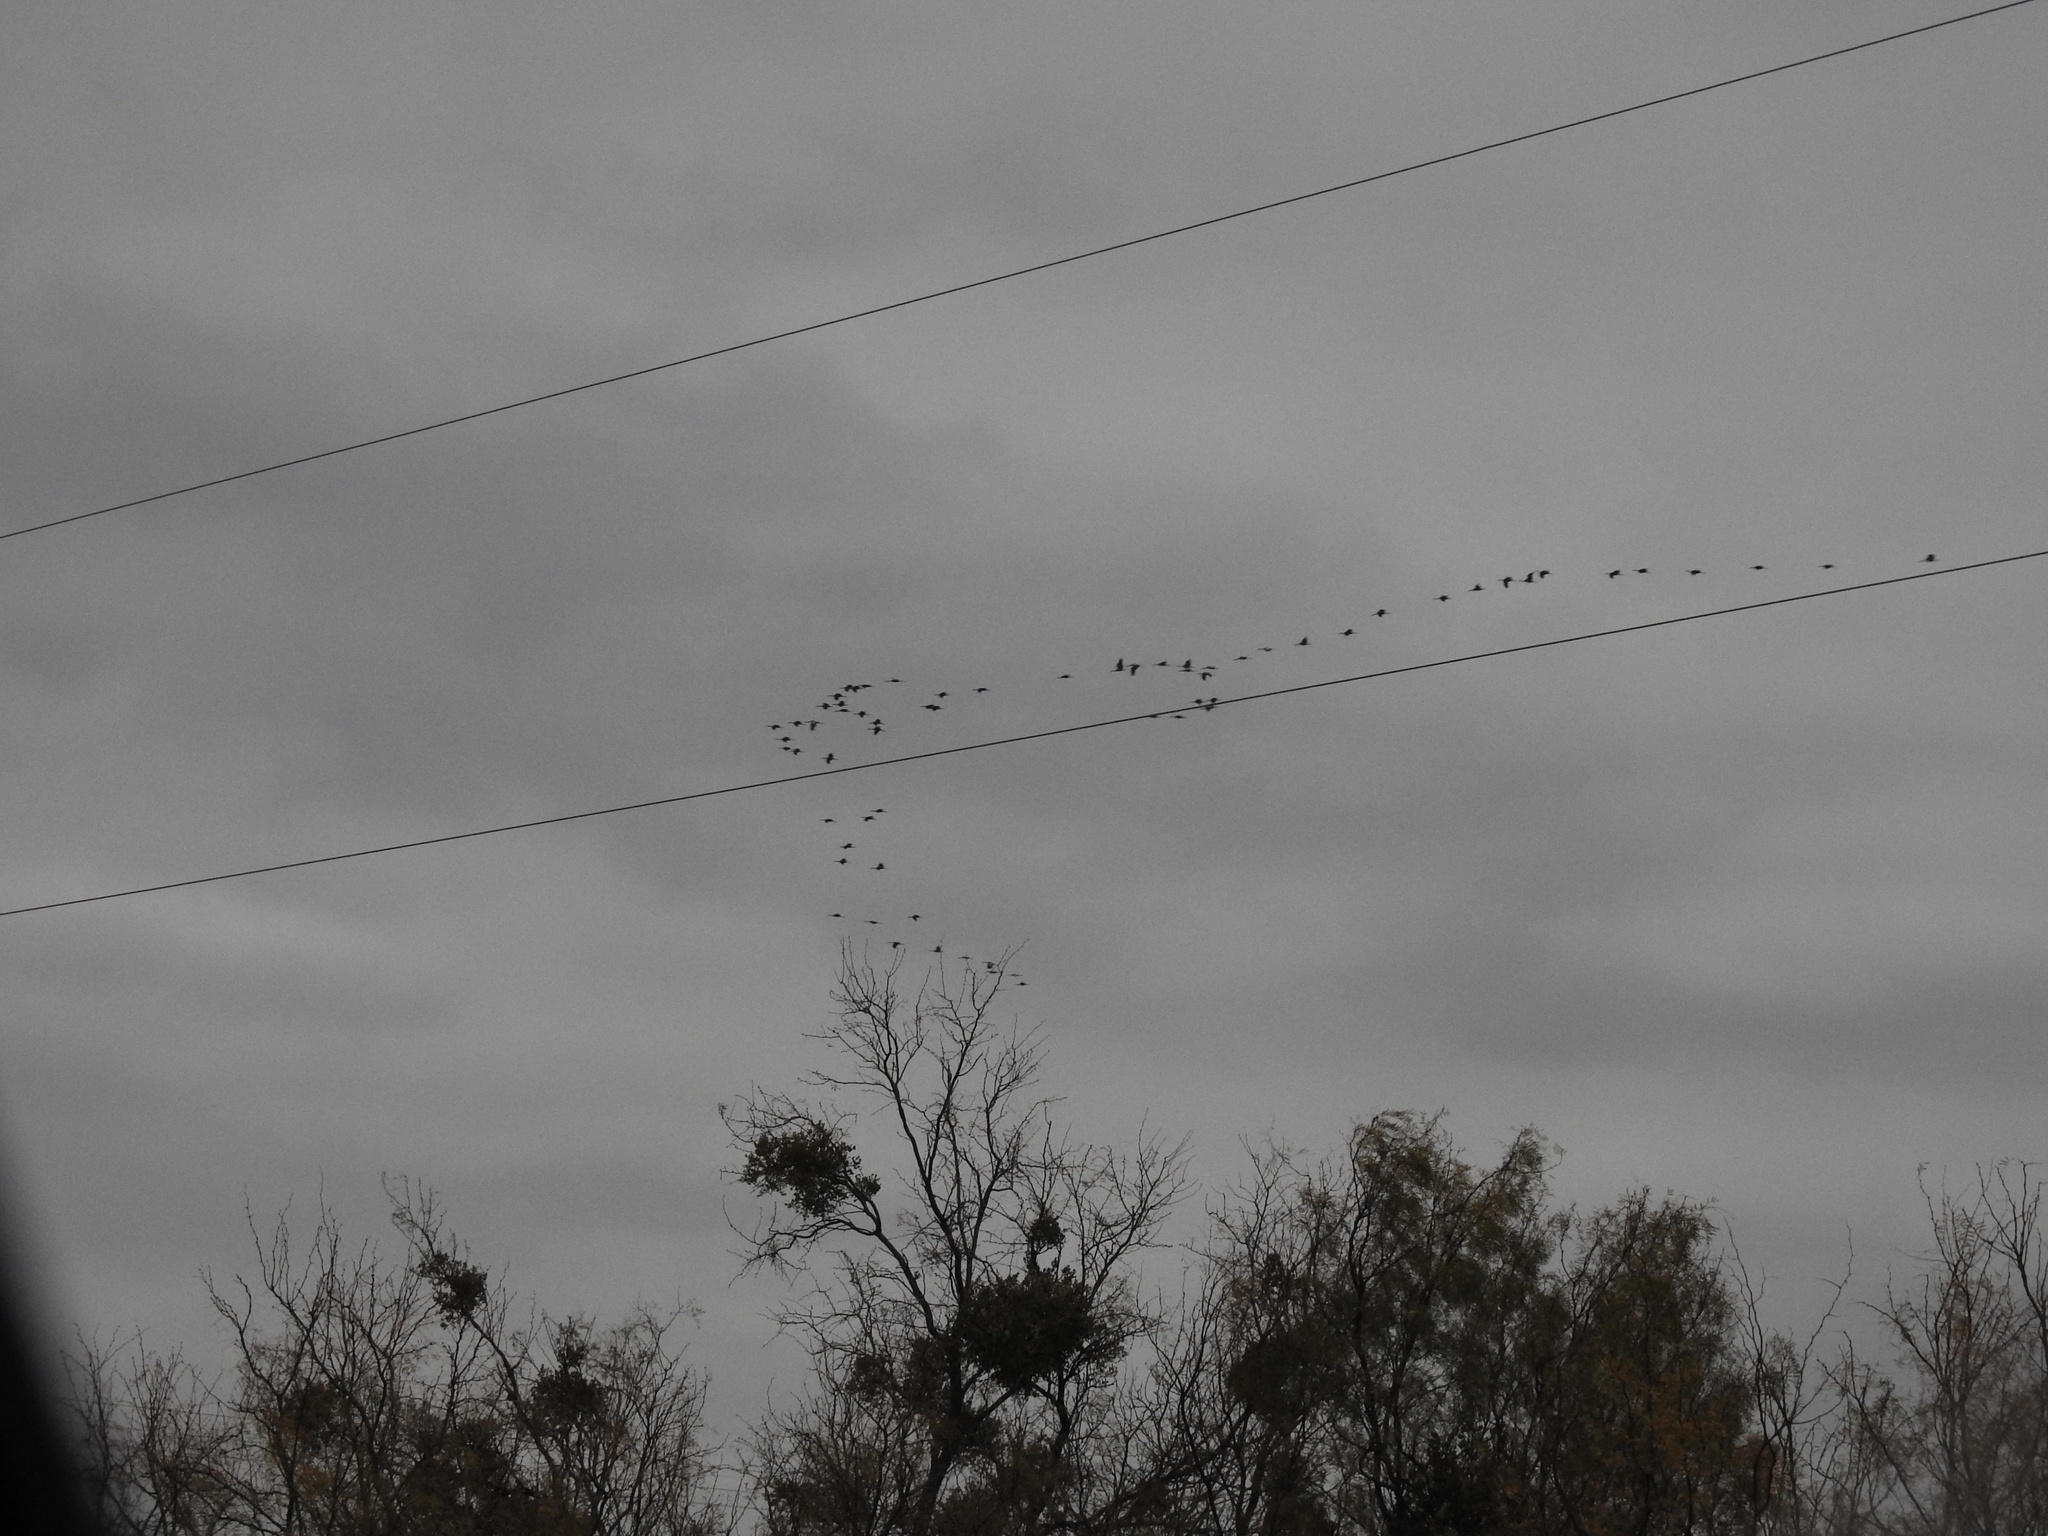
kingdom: Animalia
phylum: Chordata
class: Aves
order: Gruiformes
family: Gruidae
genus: Grus
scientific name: Grus canadensis
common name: Sandhill crane
